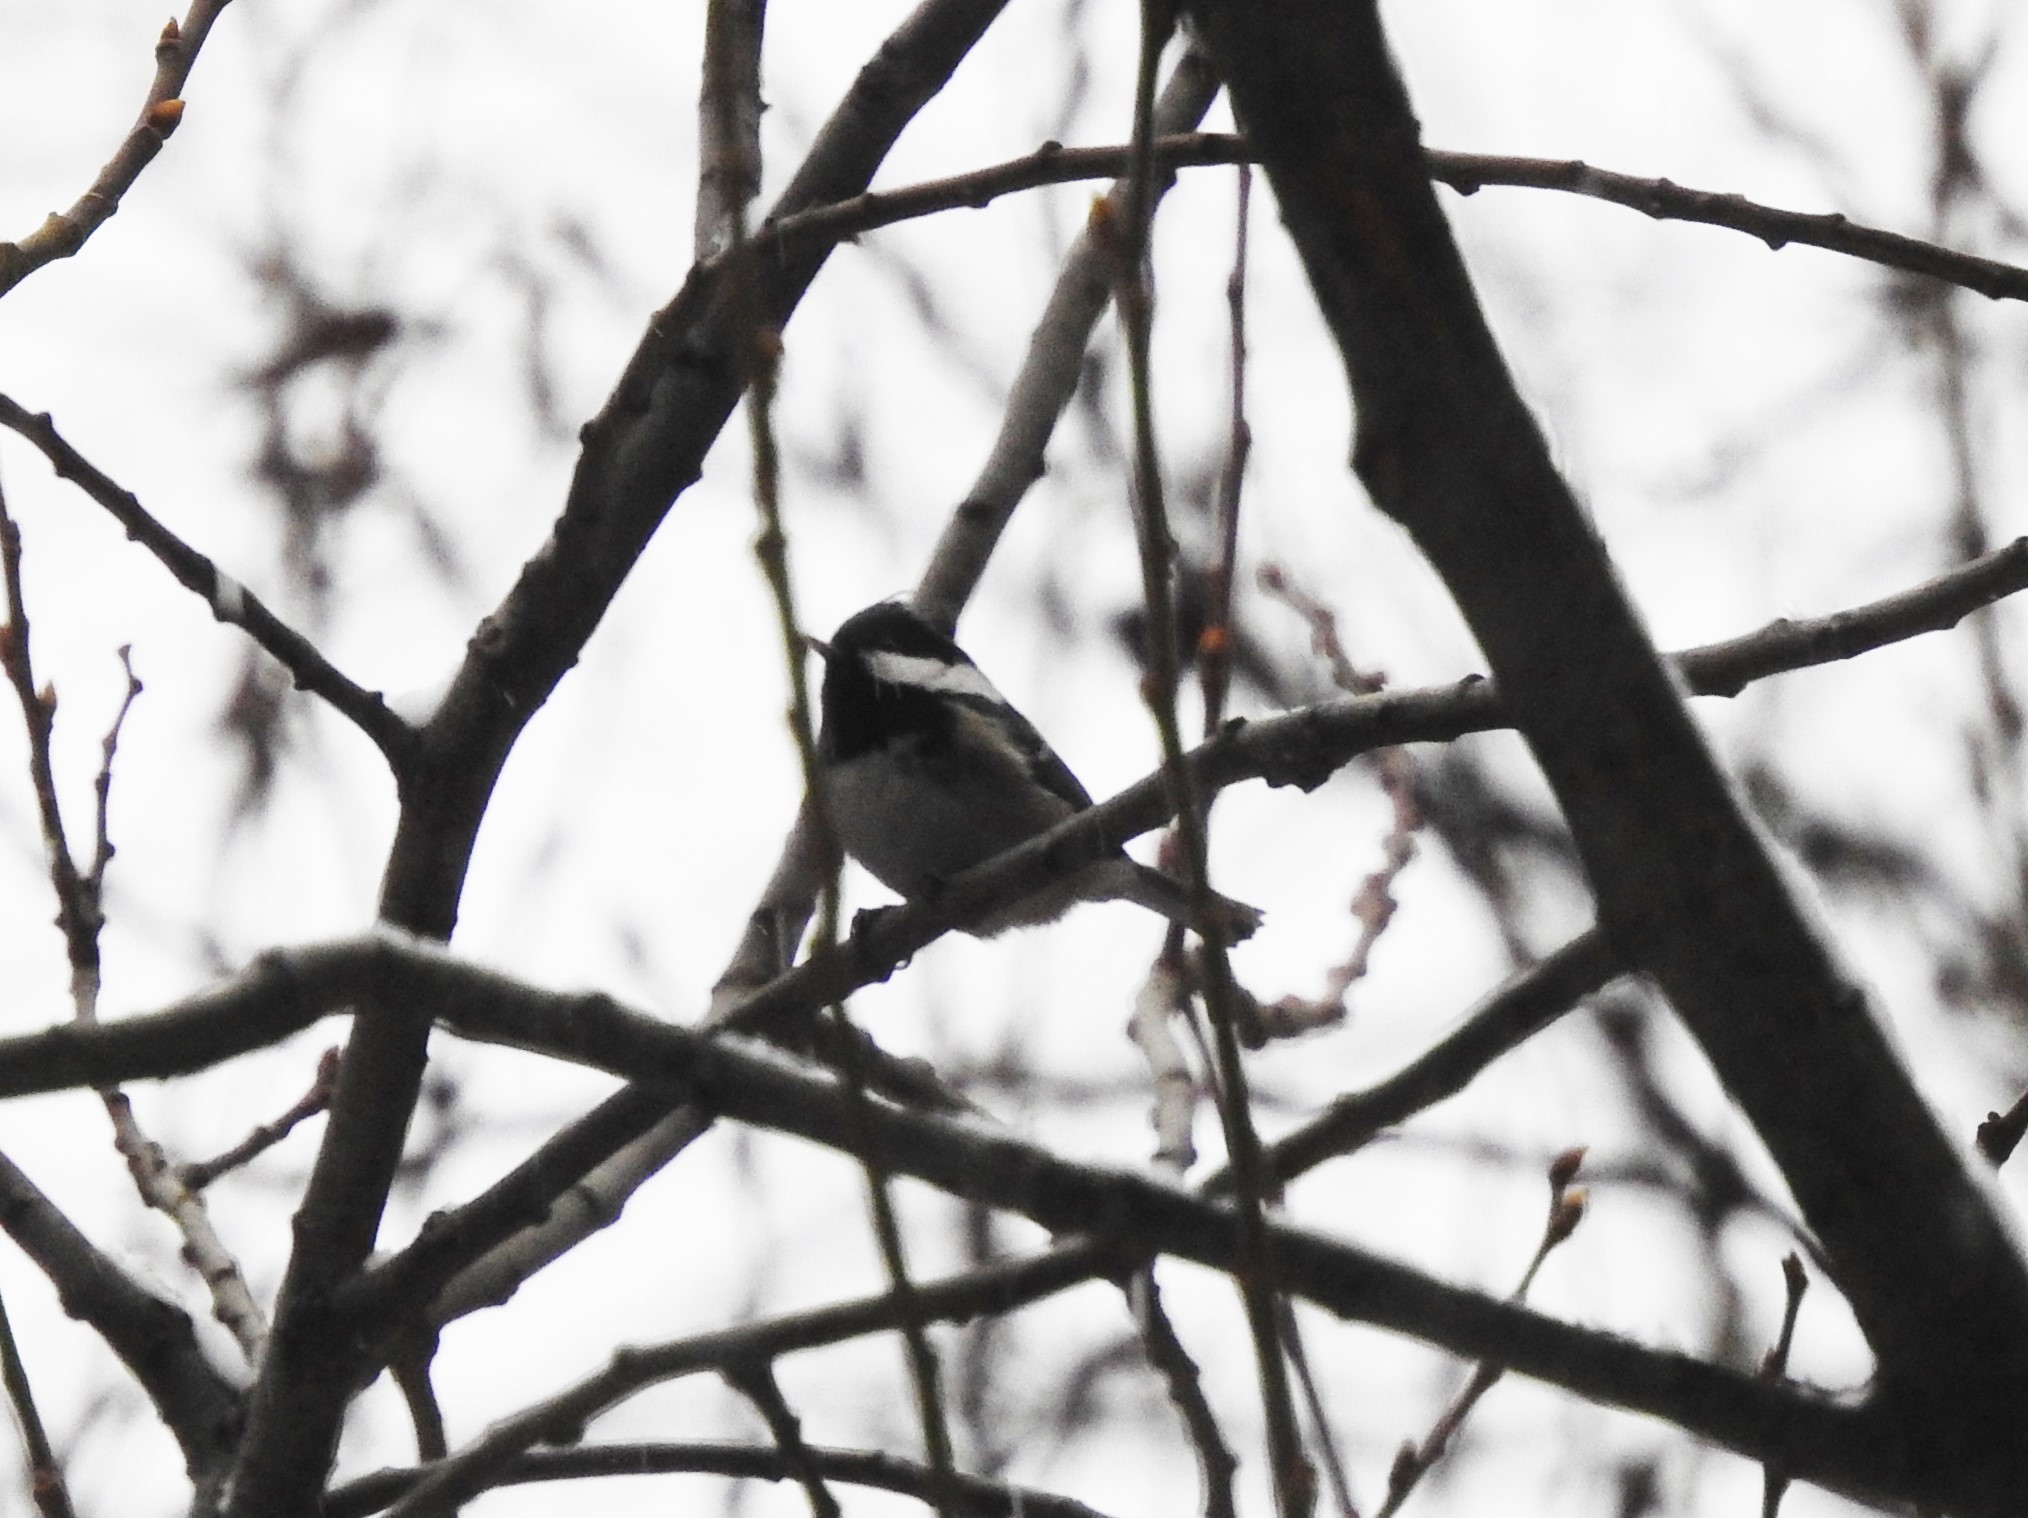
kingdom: Animalia
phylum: Chordata
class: Aves
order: Passeriformes
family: Paridae
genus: Periparus
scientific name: Periparus ater
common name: Coal tit
